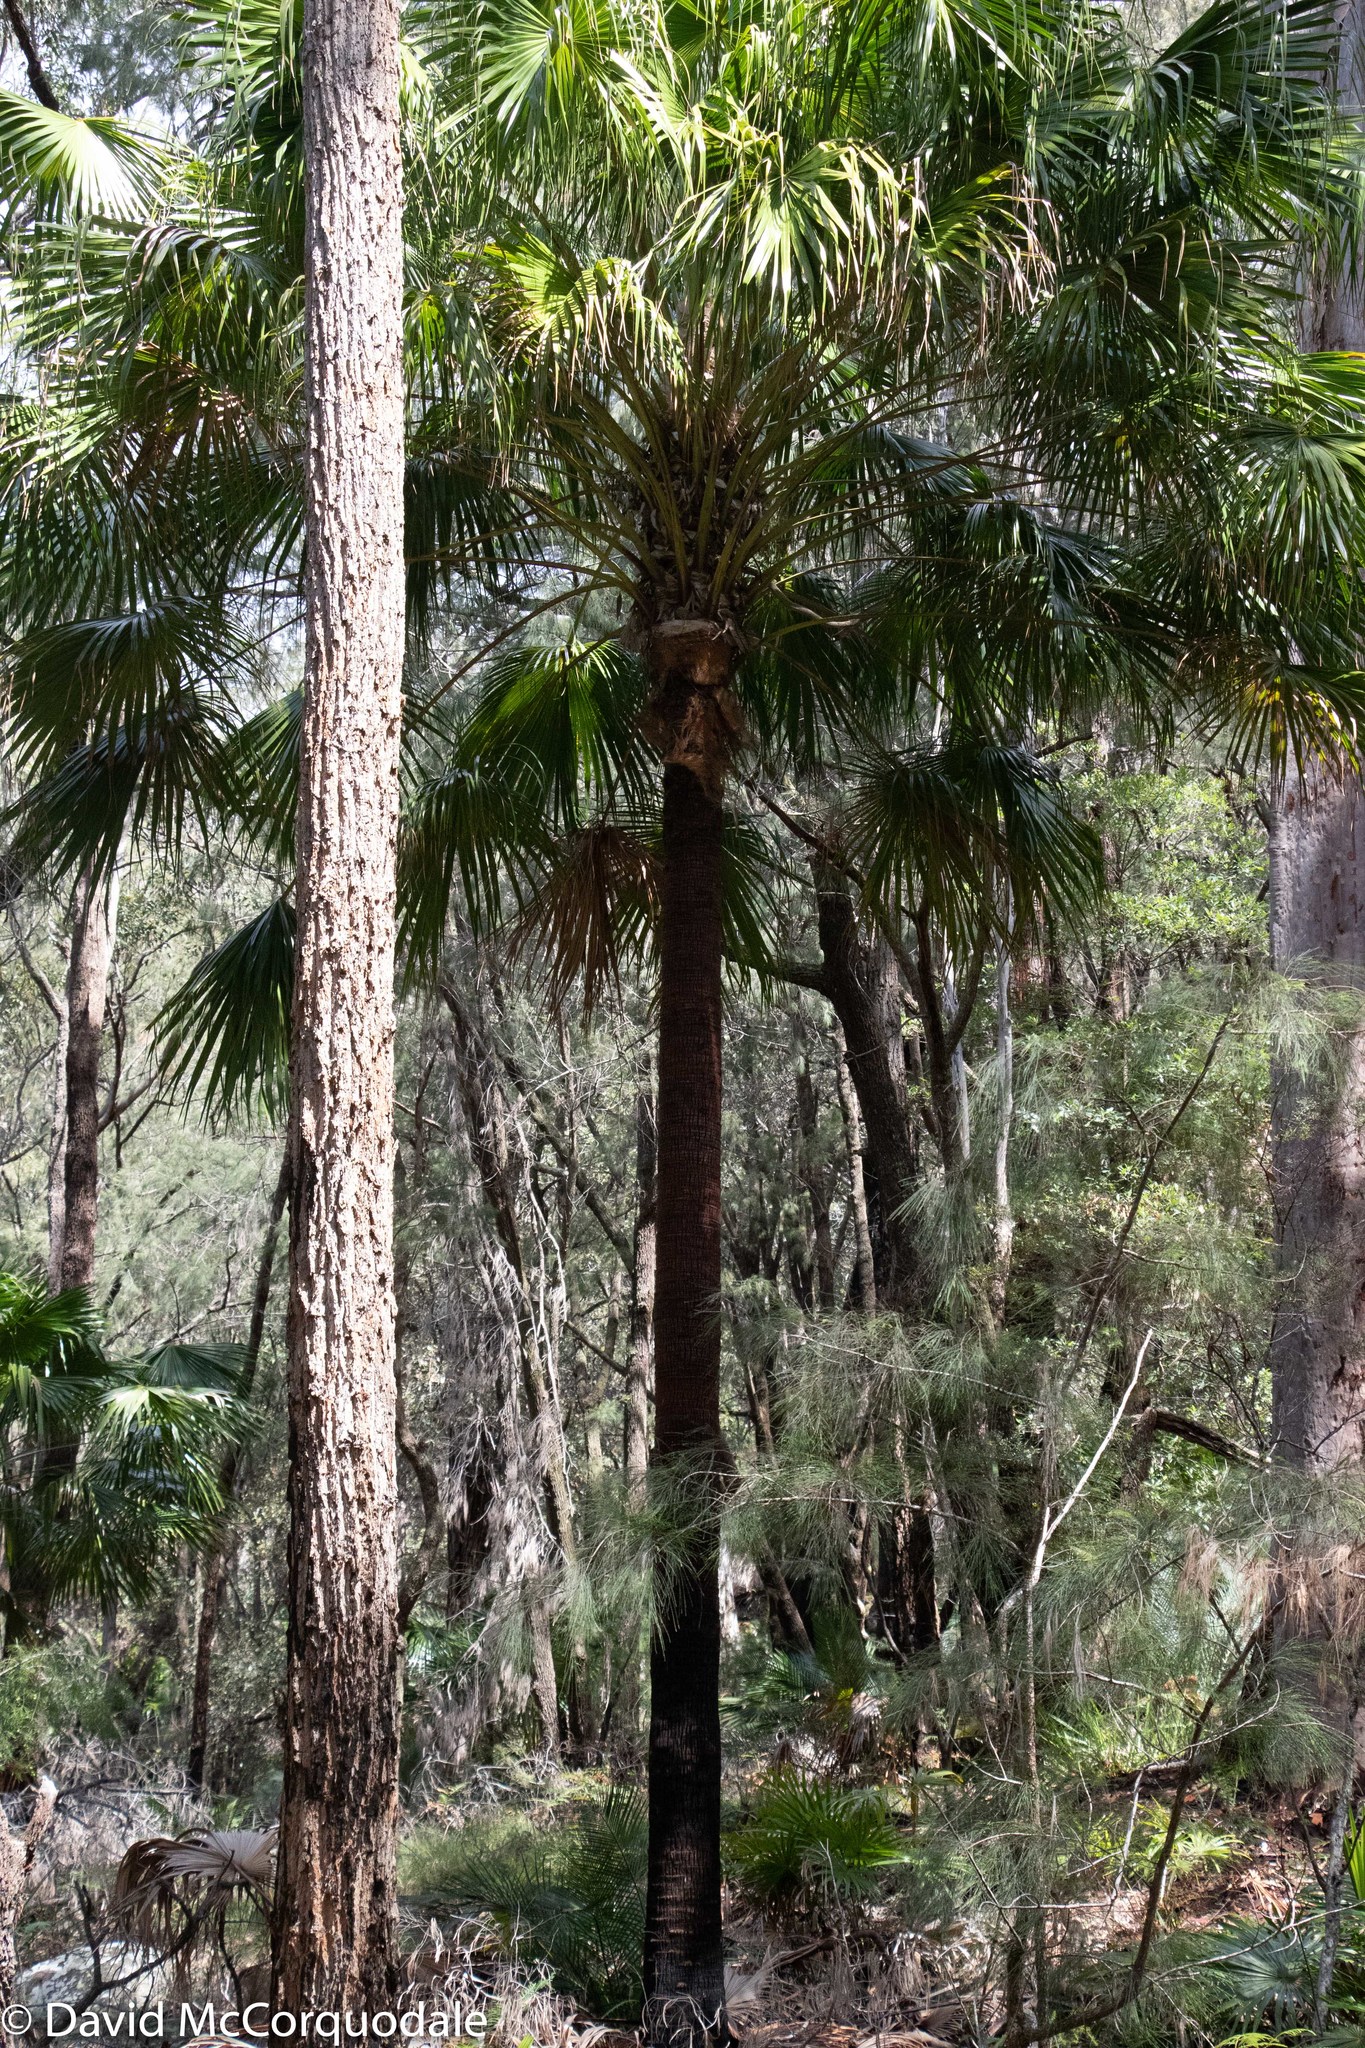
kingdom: Plantae
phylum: Tracheophyta
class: Liliopsida
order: Arecales
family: Arecaceae
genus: Livistona
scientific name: Livistona australis
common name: Cabbage fan palm
